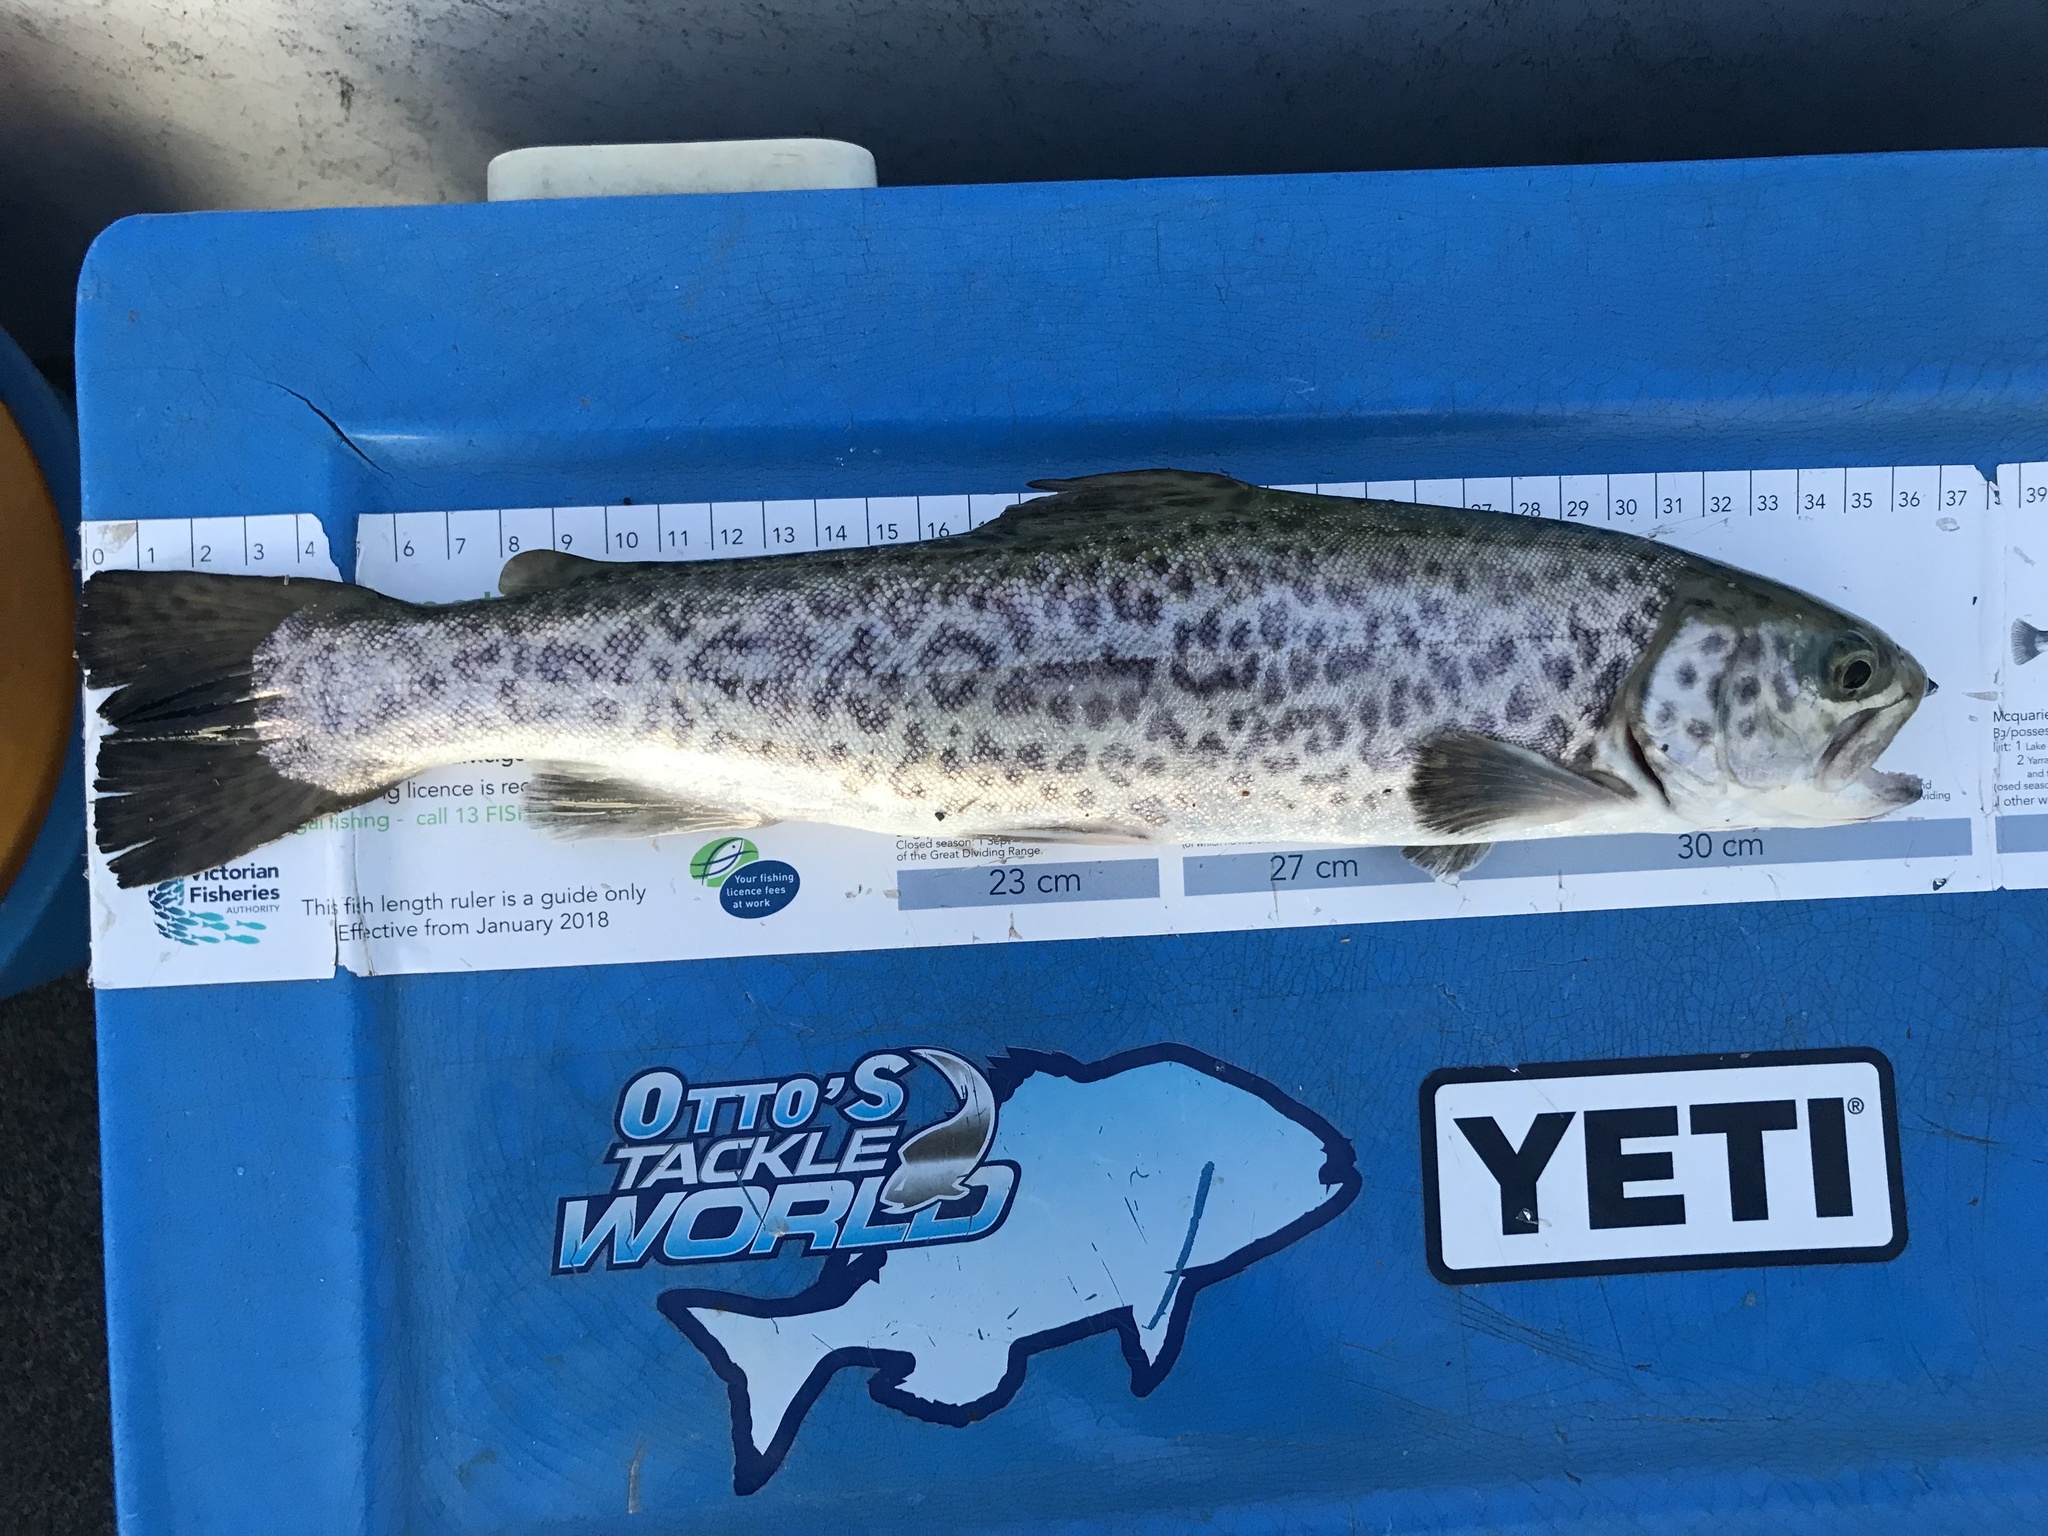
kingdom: Animalia
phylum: Chordata
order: Salmoniformes
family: Salmonidae
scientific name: Salmonidae
